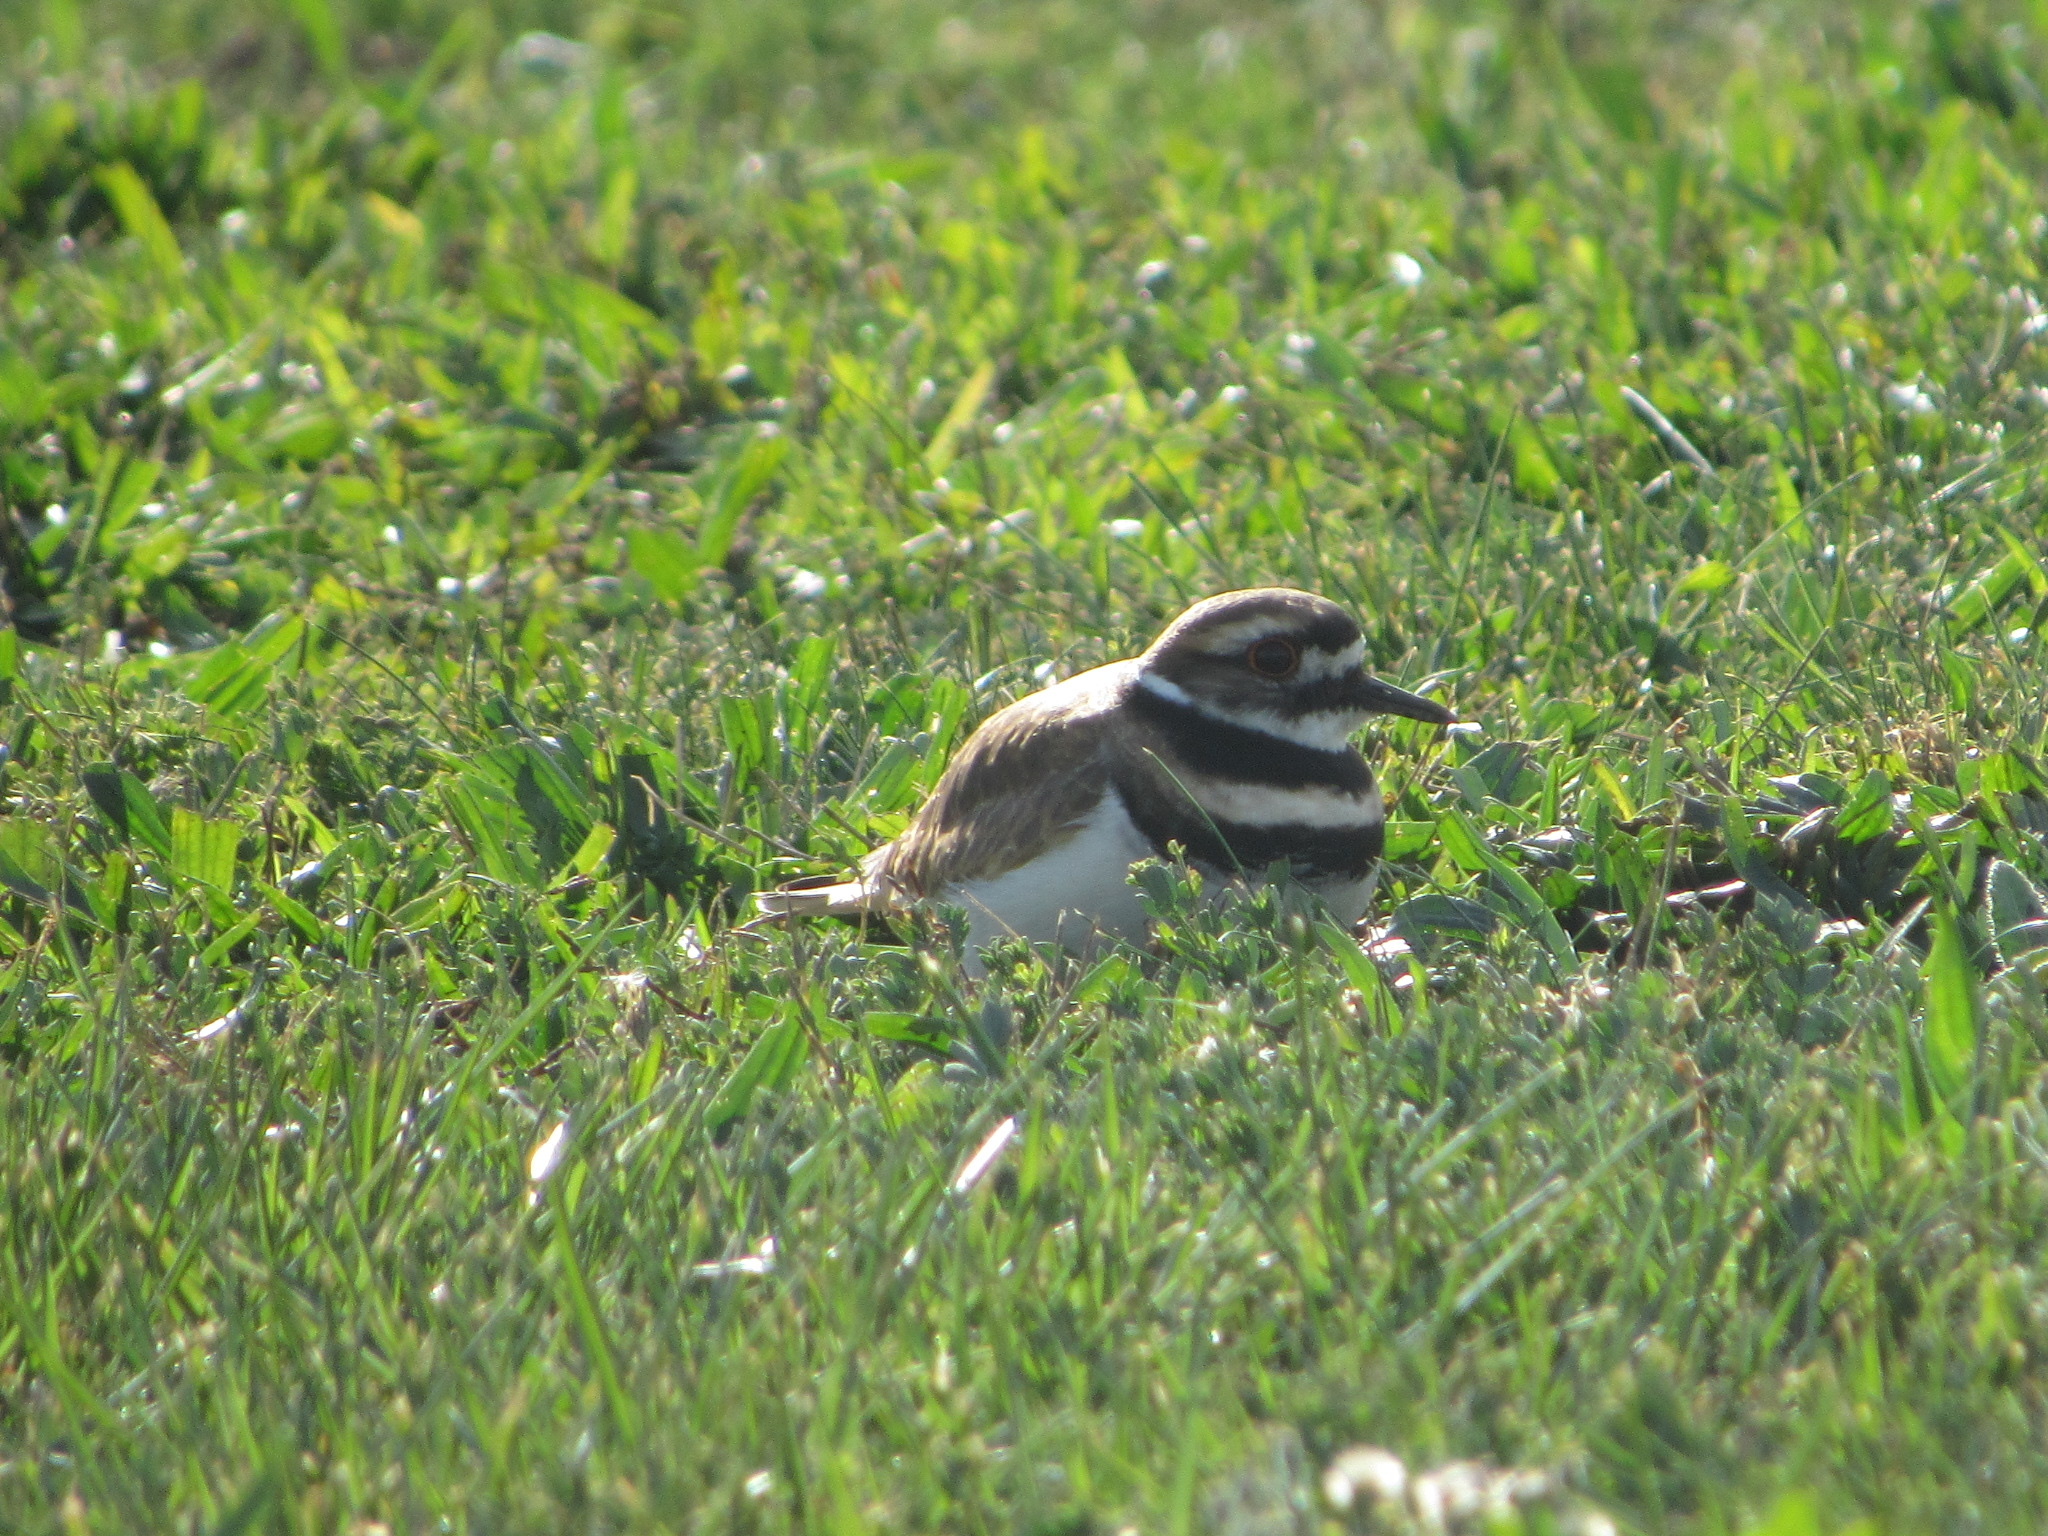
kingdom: Animalia
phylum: Chordata
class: Aves
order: Charadriiformes
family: Charadriidae
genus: Charadrius
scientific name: Charadrius vociferus
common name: Killdeer
